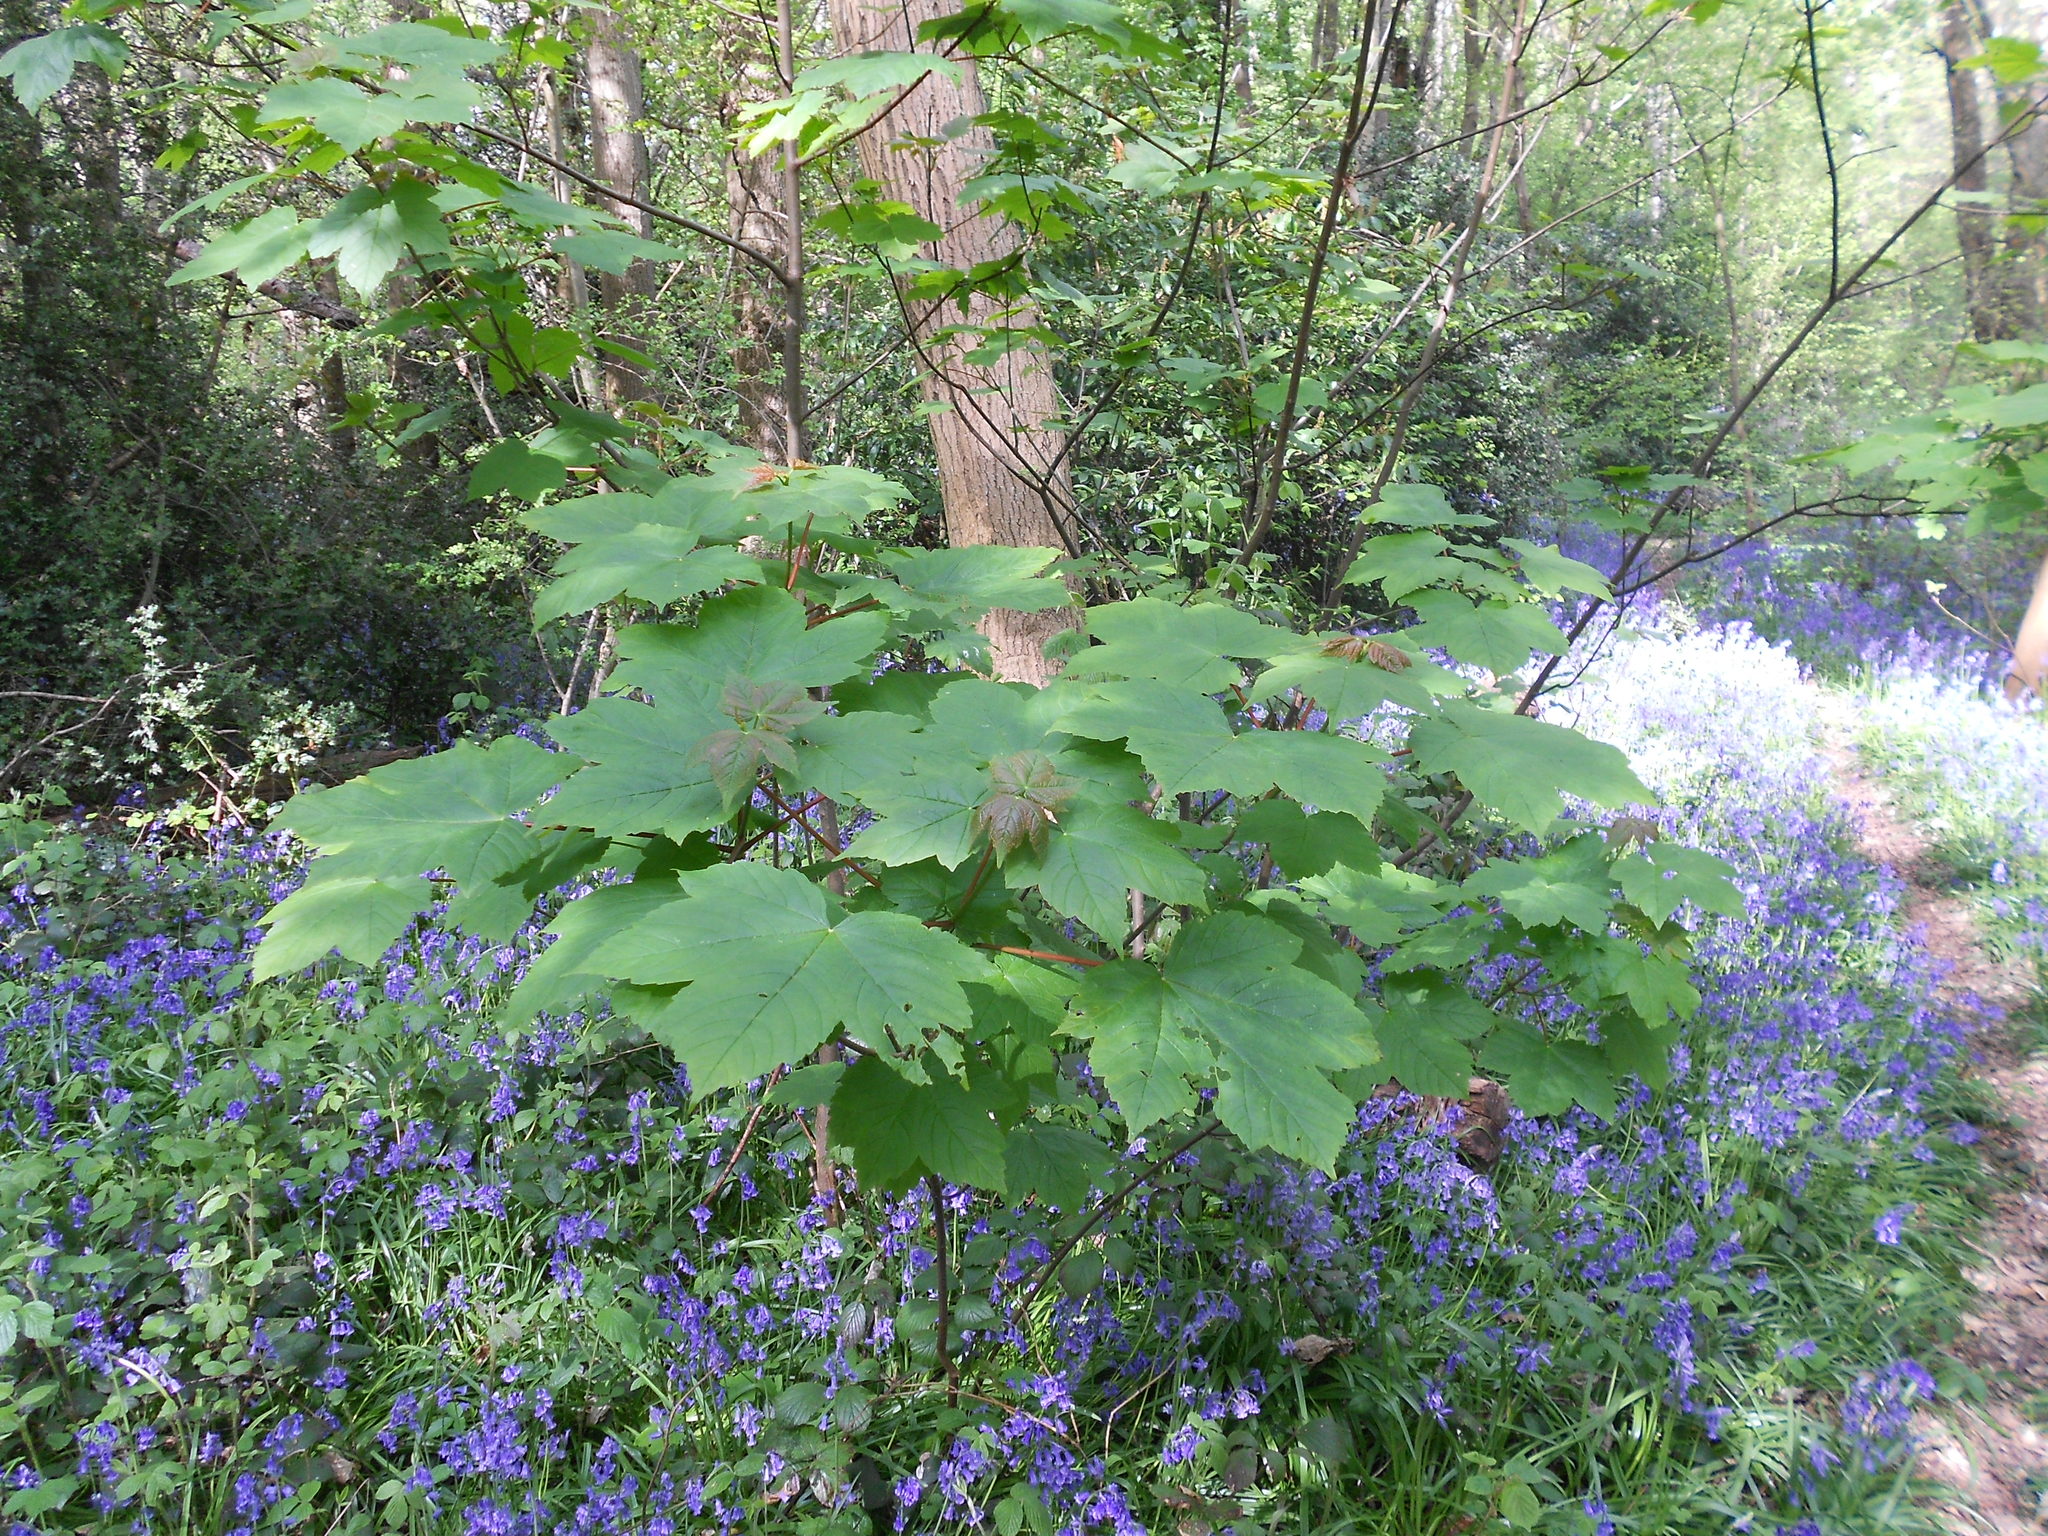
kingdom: Plantae
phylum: Tracheophyta
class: Magnoliopsida
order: Sapindales
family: Sapindaceae
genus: Acer
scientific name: Acer pseudoplatanus
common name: Sycamore
